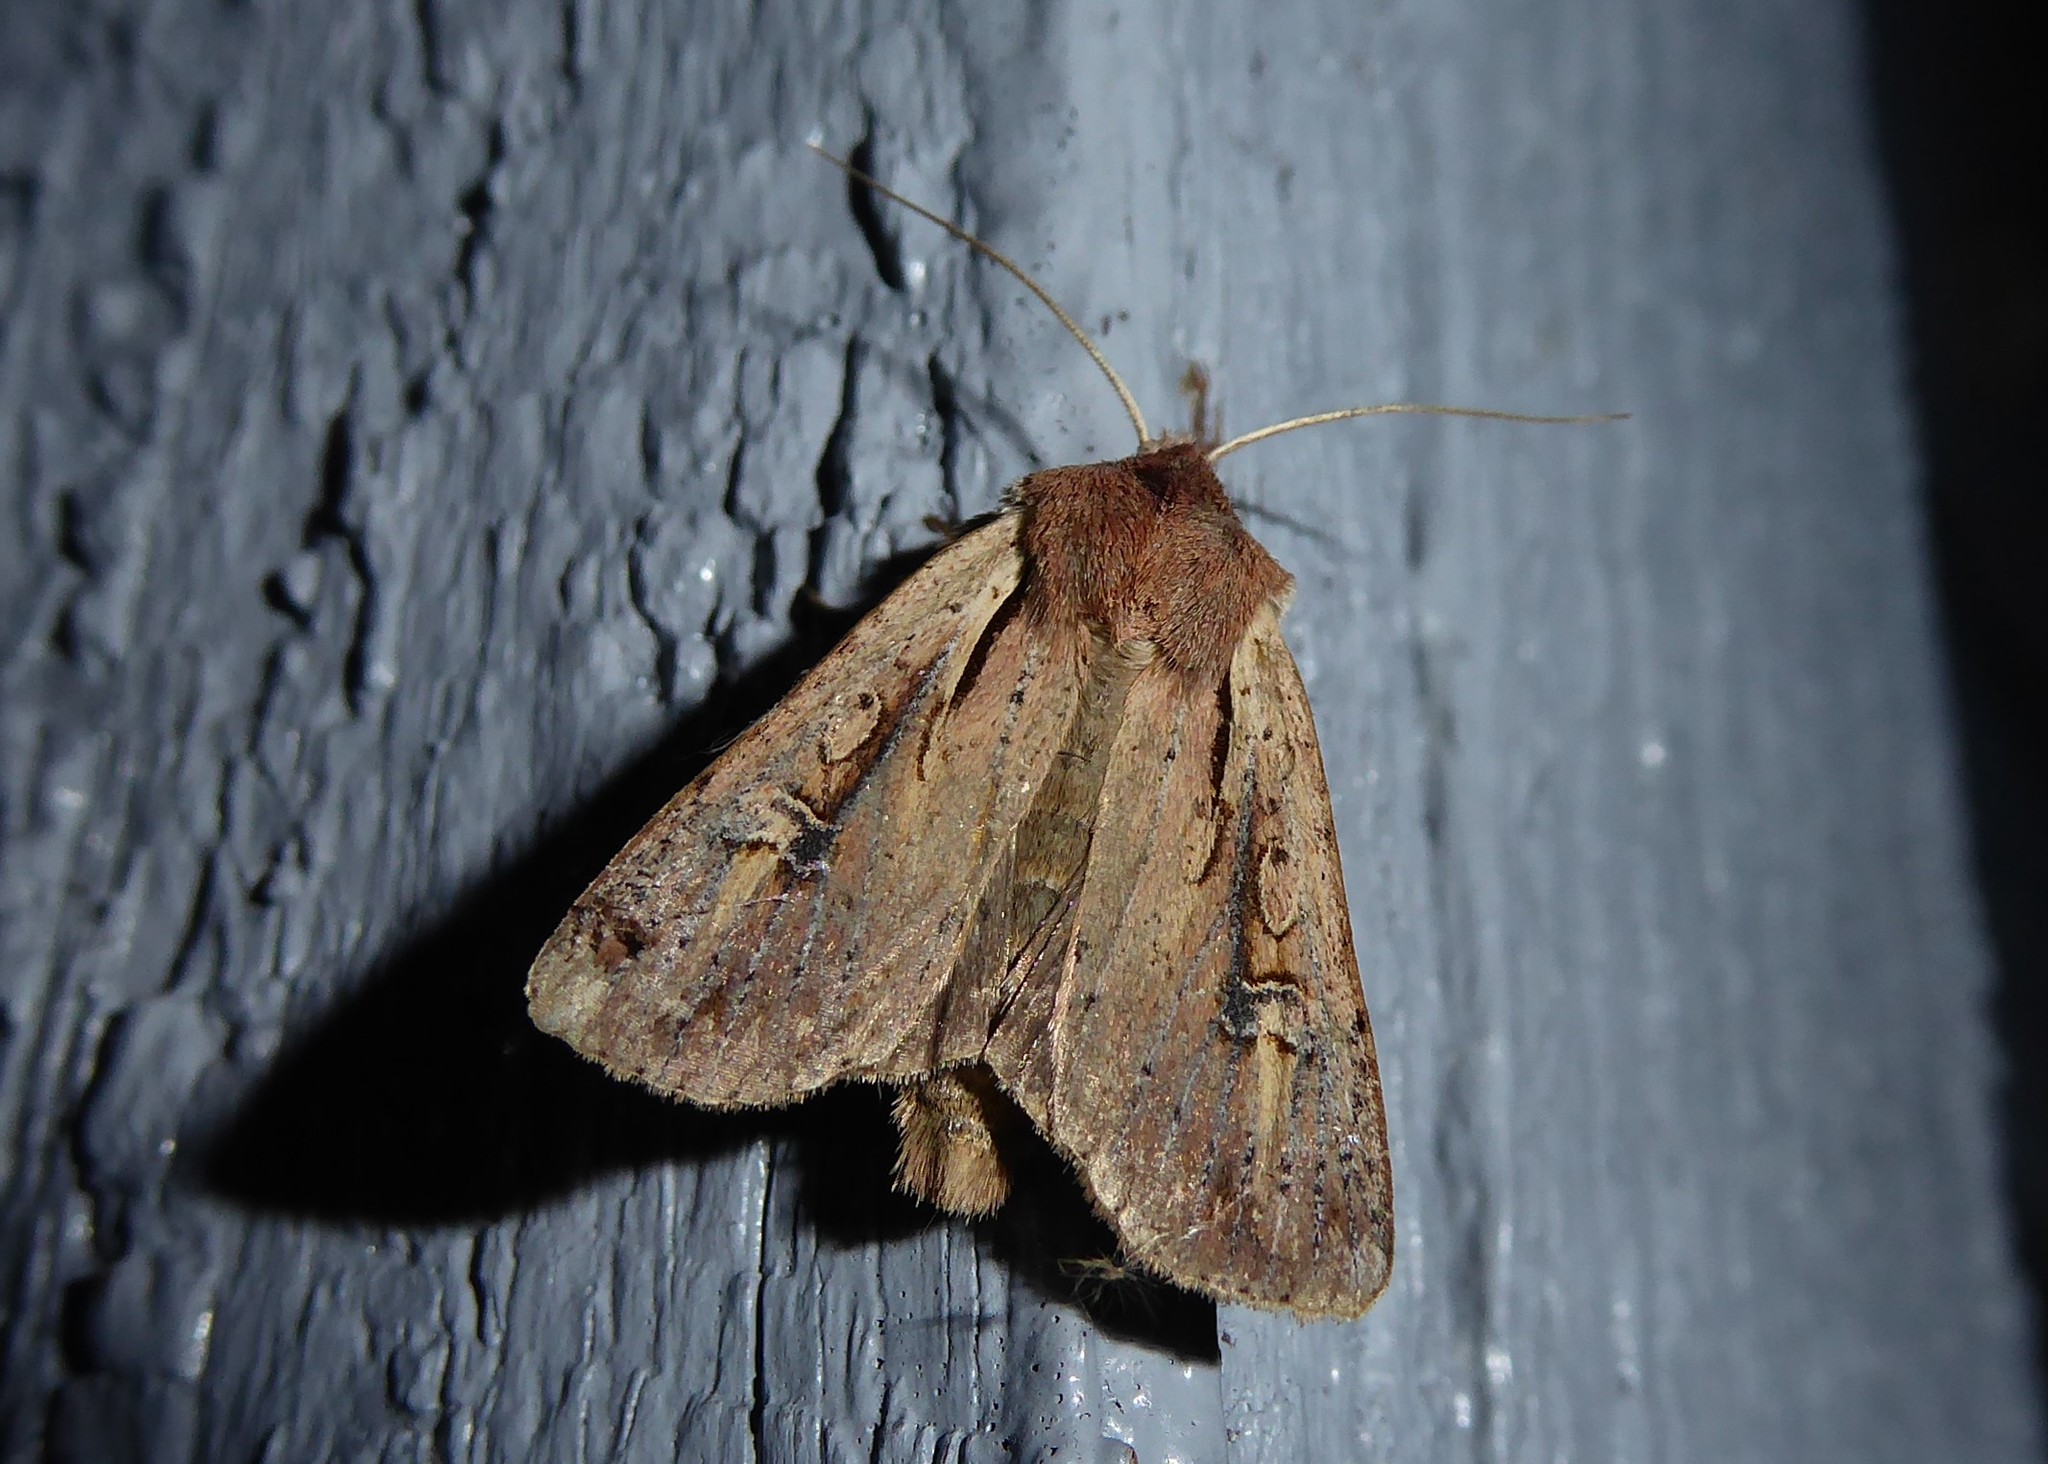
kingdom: Animalia
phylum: Arthropoda
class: Insecta
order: Lepidoptera
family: Noctuidae
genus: Ichneutica
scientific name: Ichneutica atristriga
